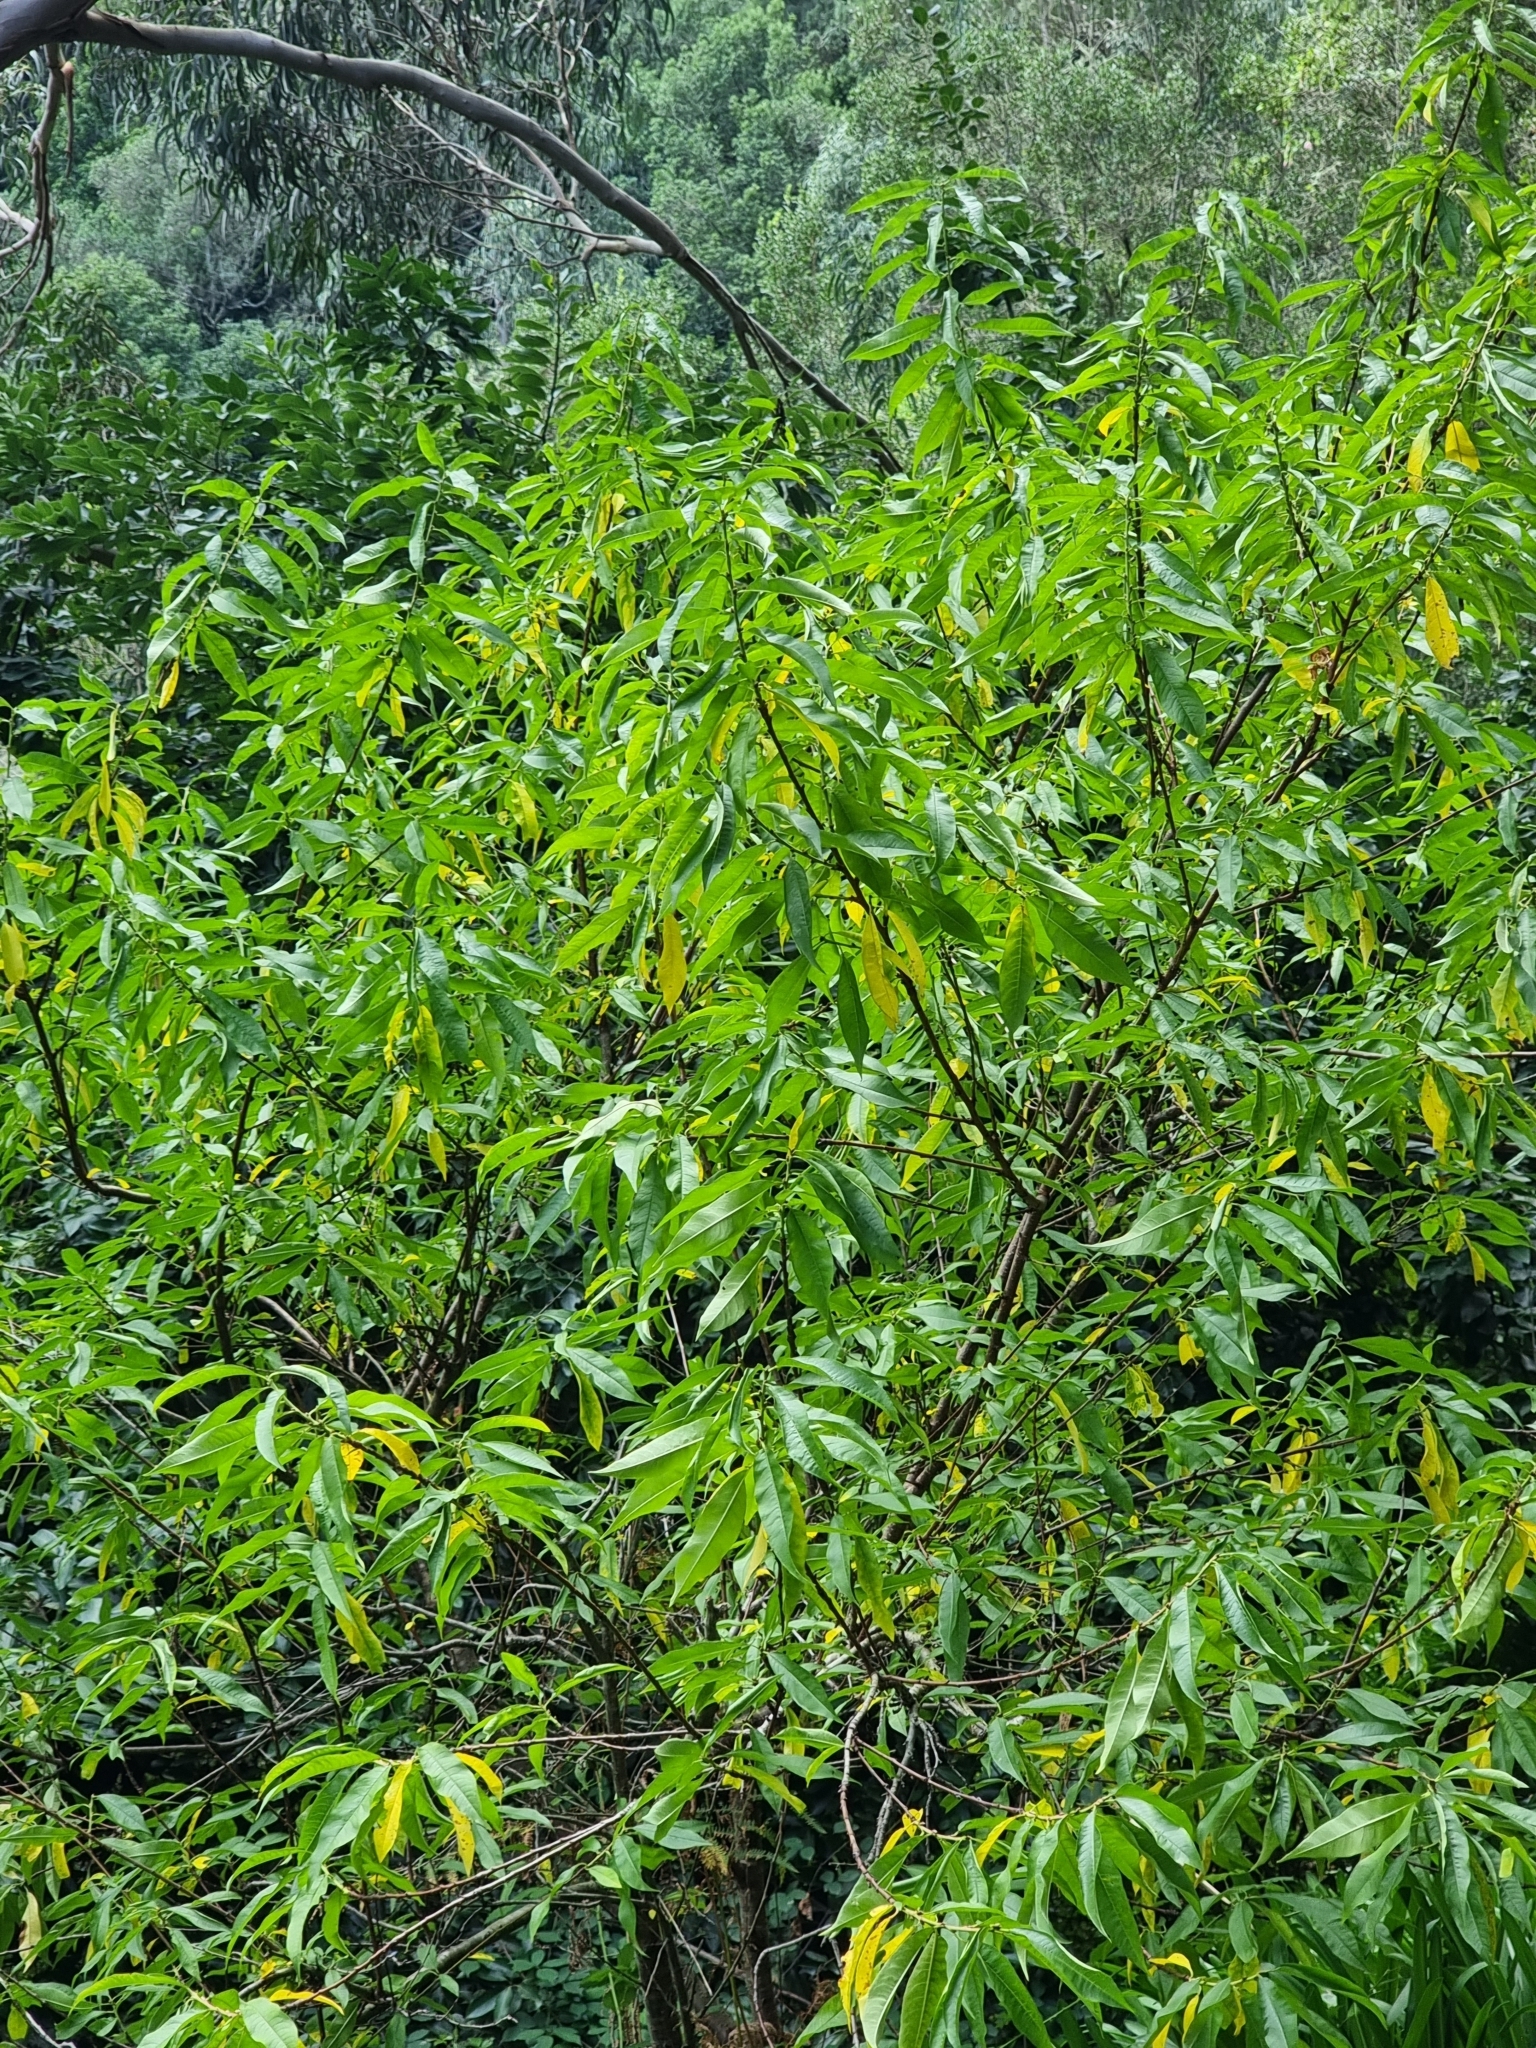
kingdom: Plantae
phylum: Tracheophyta
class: Magnoliopsida
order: Malpighiales
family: Salicaceae
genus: Salix
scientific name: Salix canariensis
